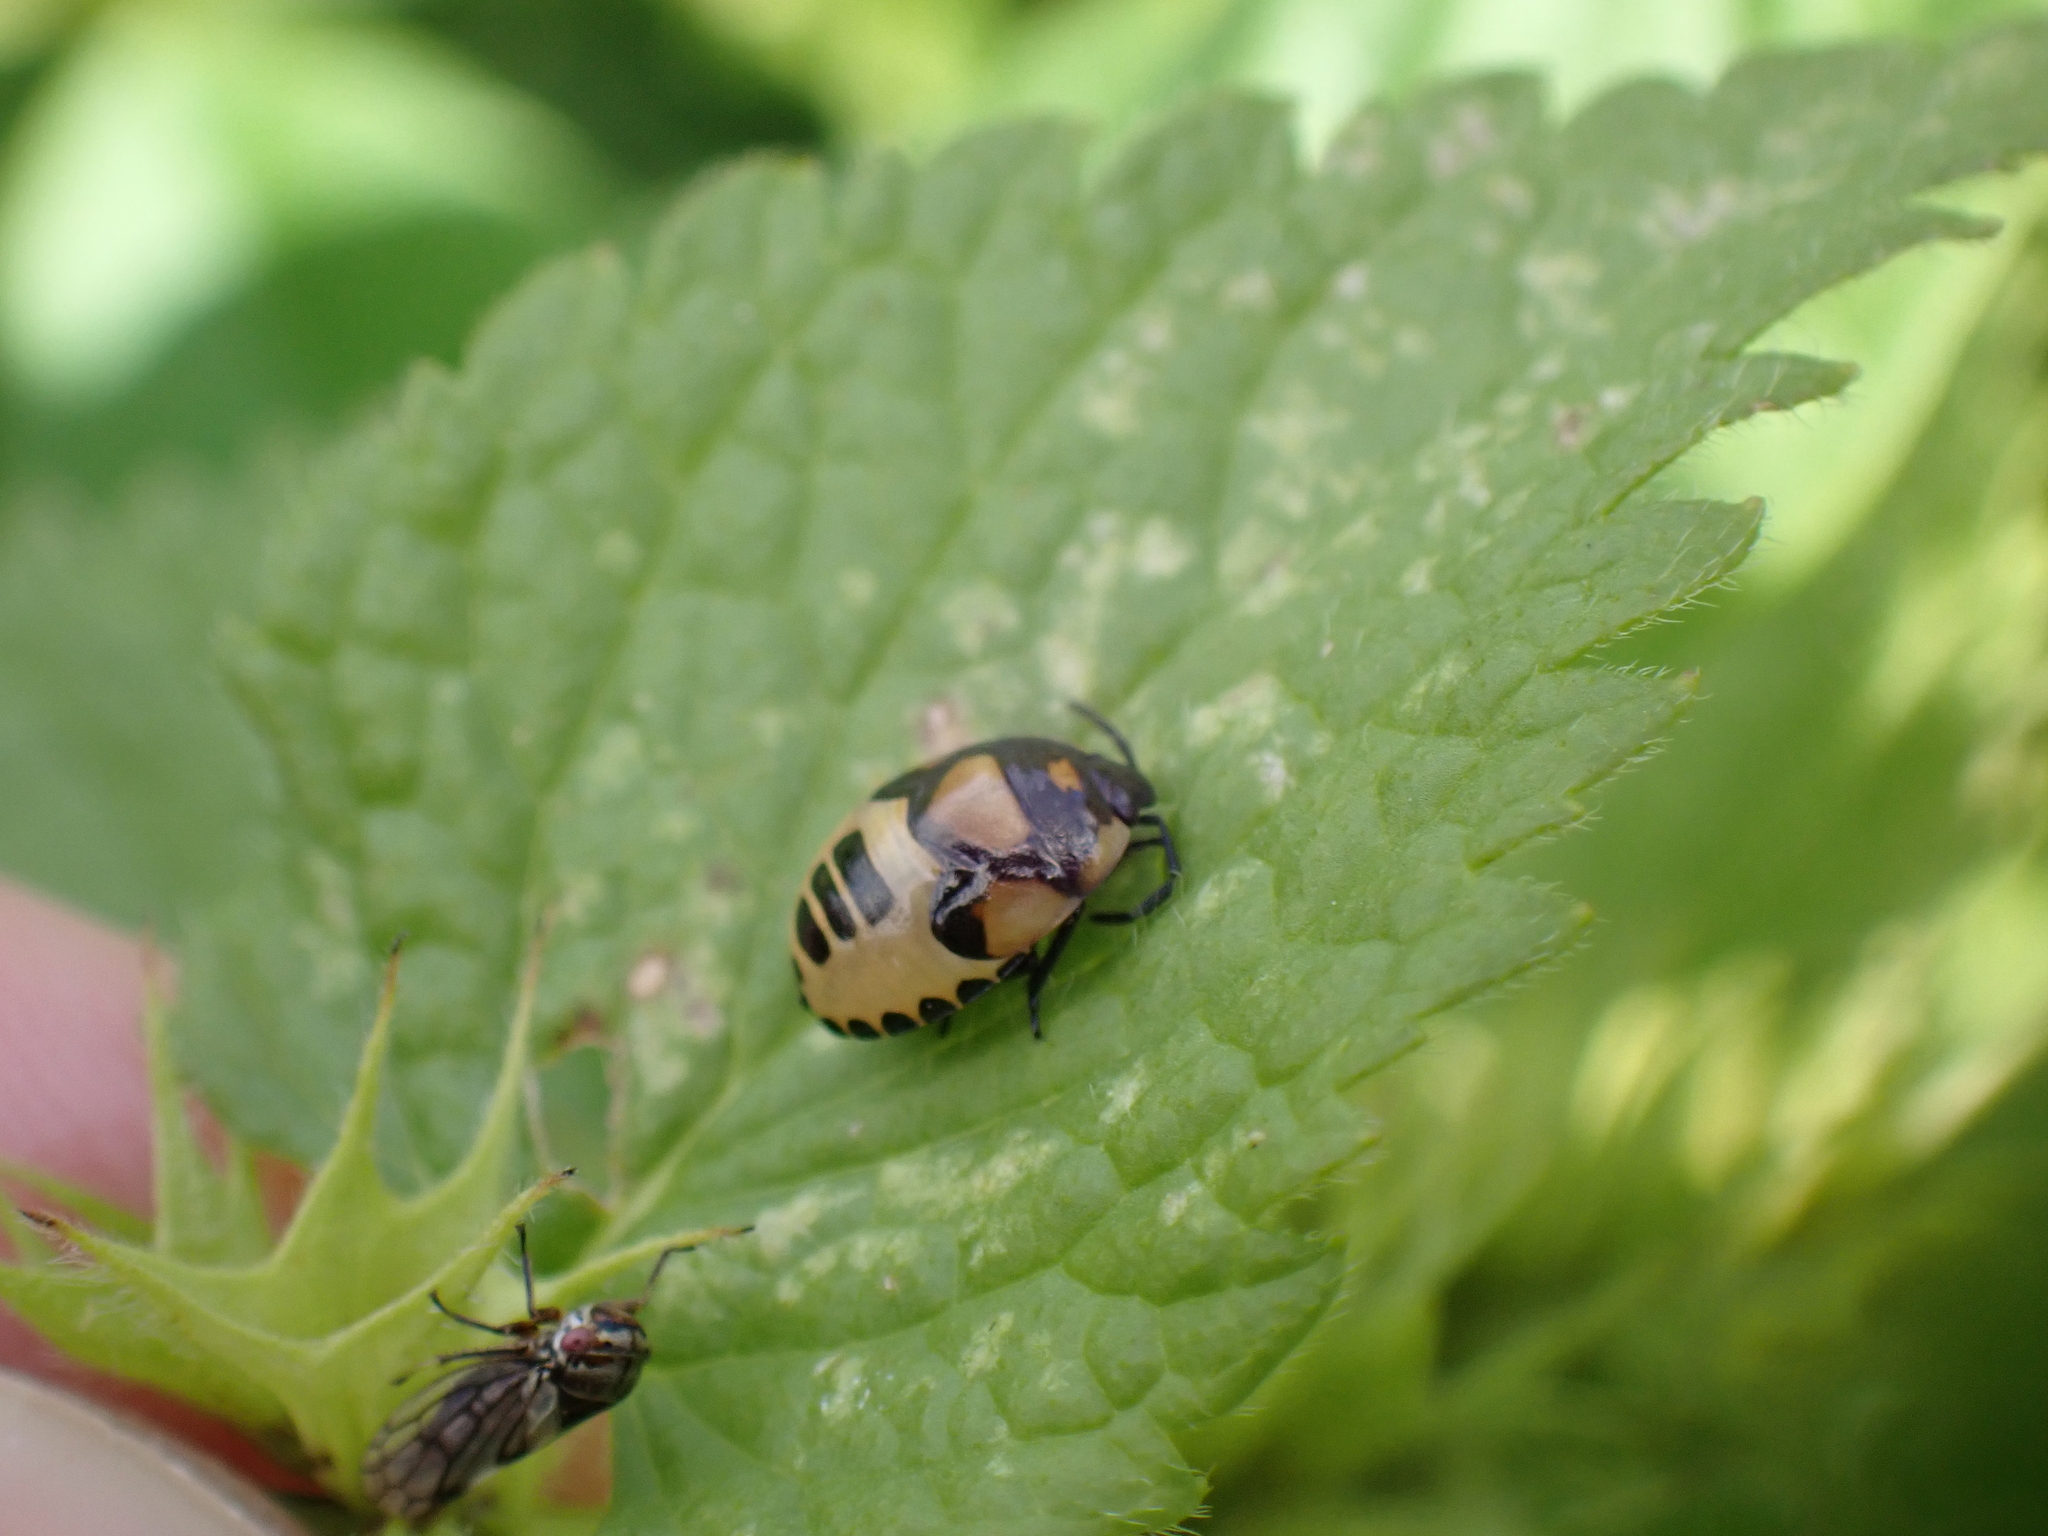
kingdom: Animalia
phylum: Arthropoda
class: Insecta
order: Hemiptera
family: Cydnidae
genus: Tritomegas
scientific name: Tritomegas bicolor
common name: Pied shieldbug
